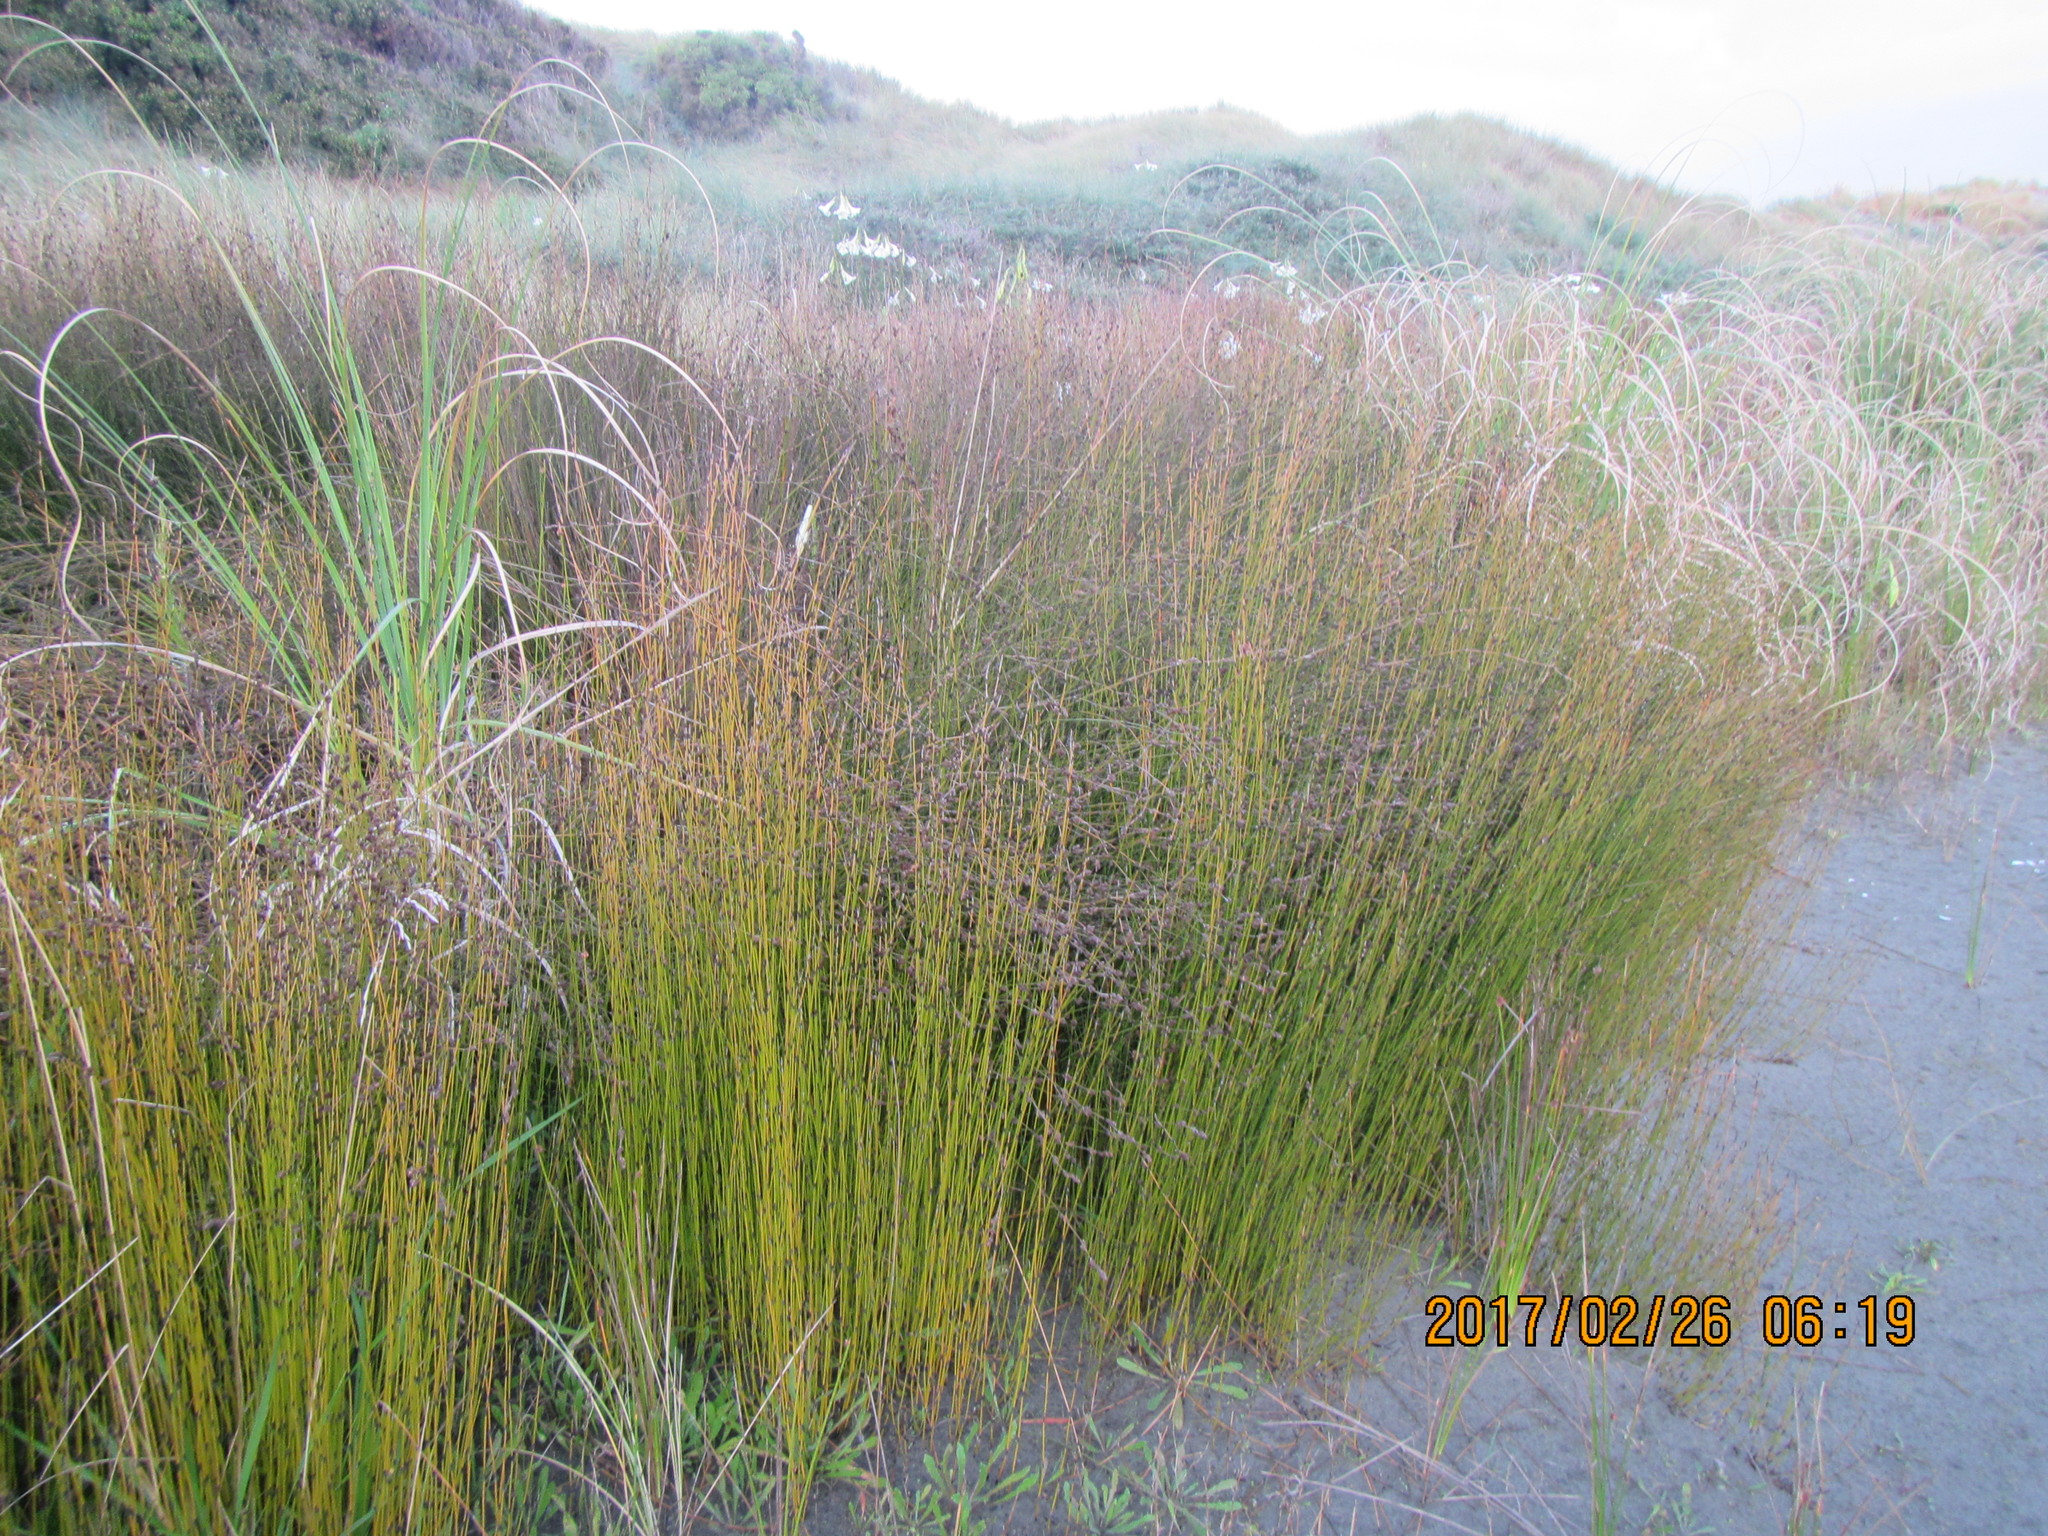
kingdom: Plantae
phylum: Tracheophyta
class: Liliopsida
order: Poales
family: Restionaceae
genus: Apodasmia
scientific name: Apodasmia similis
